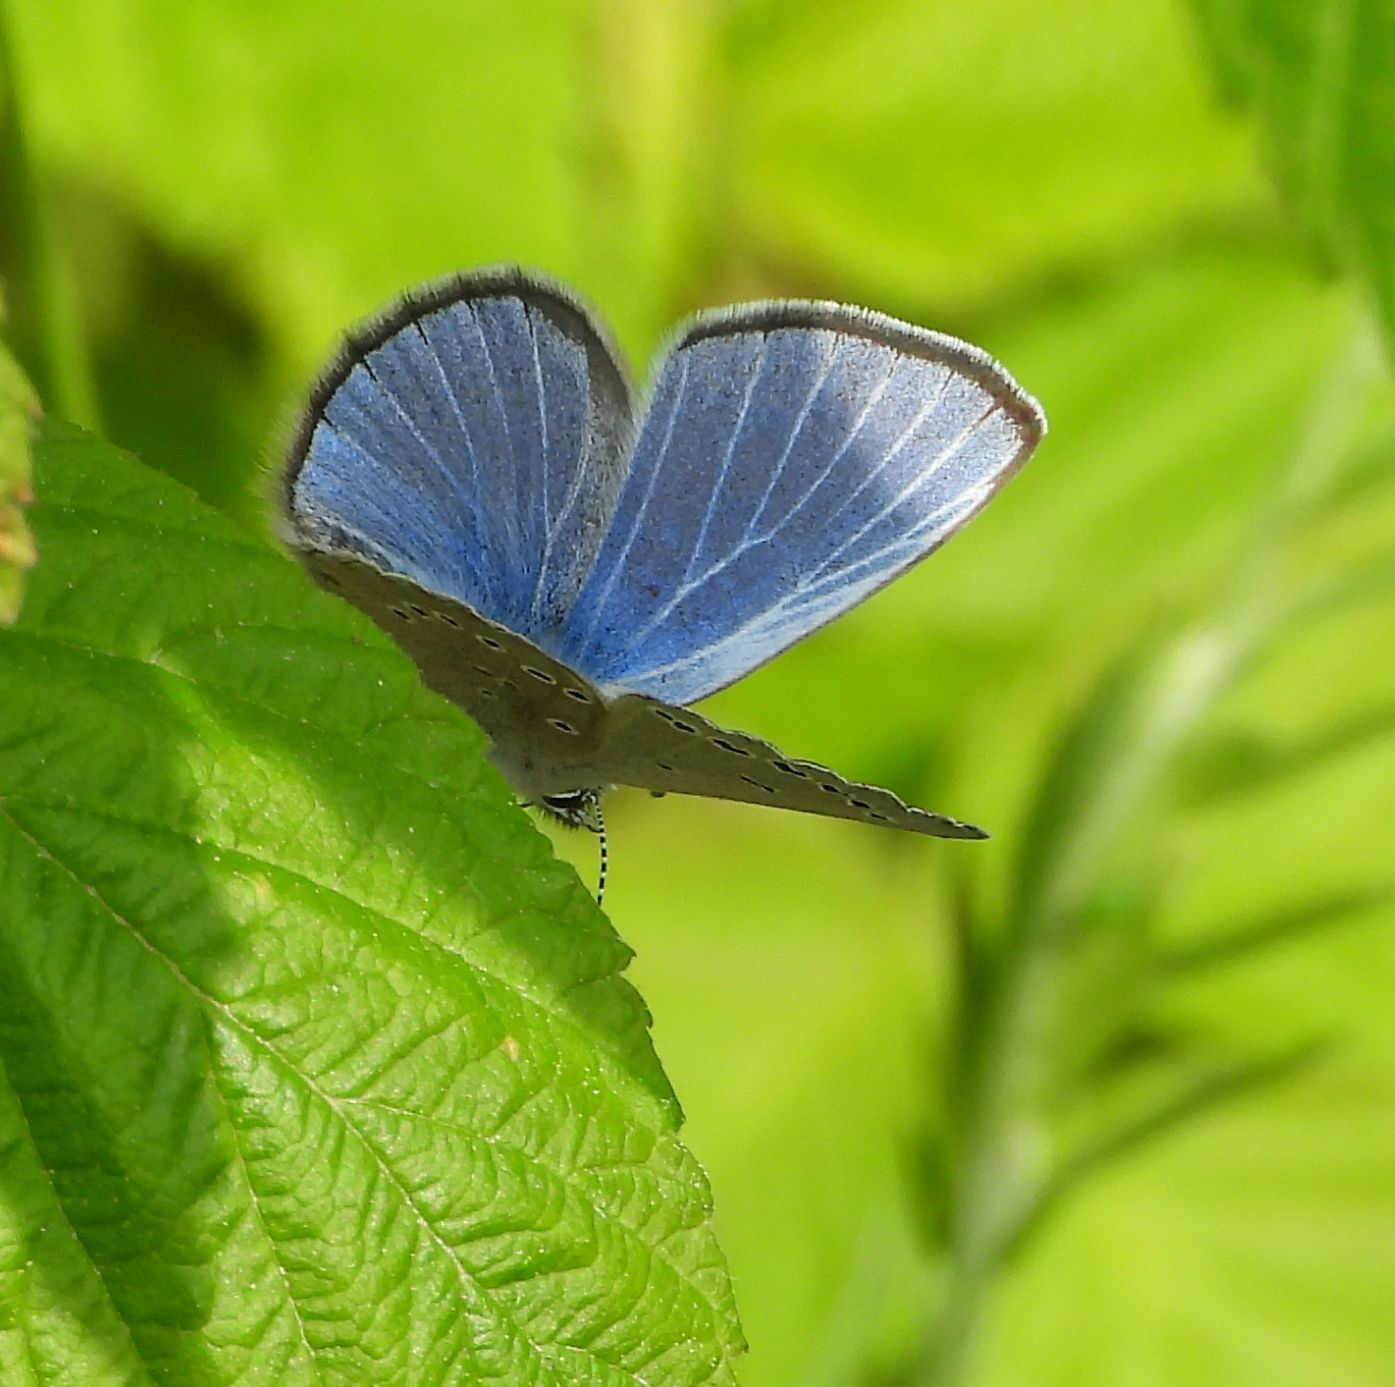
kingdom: Animalia
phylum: Arthropoda
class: Insecta
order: Lepidoptera
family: Lycaenidae
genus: Glaucopsyche
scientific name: Glaucopsyche lygdamus
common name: Silvery blue
